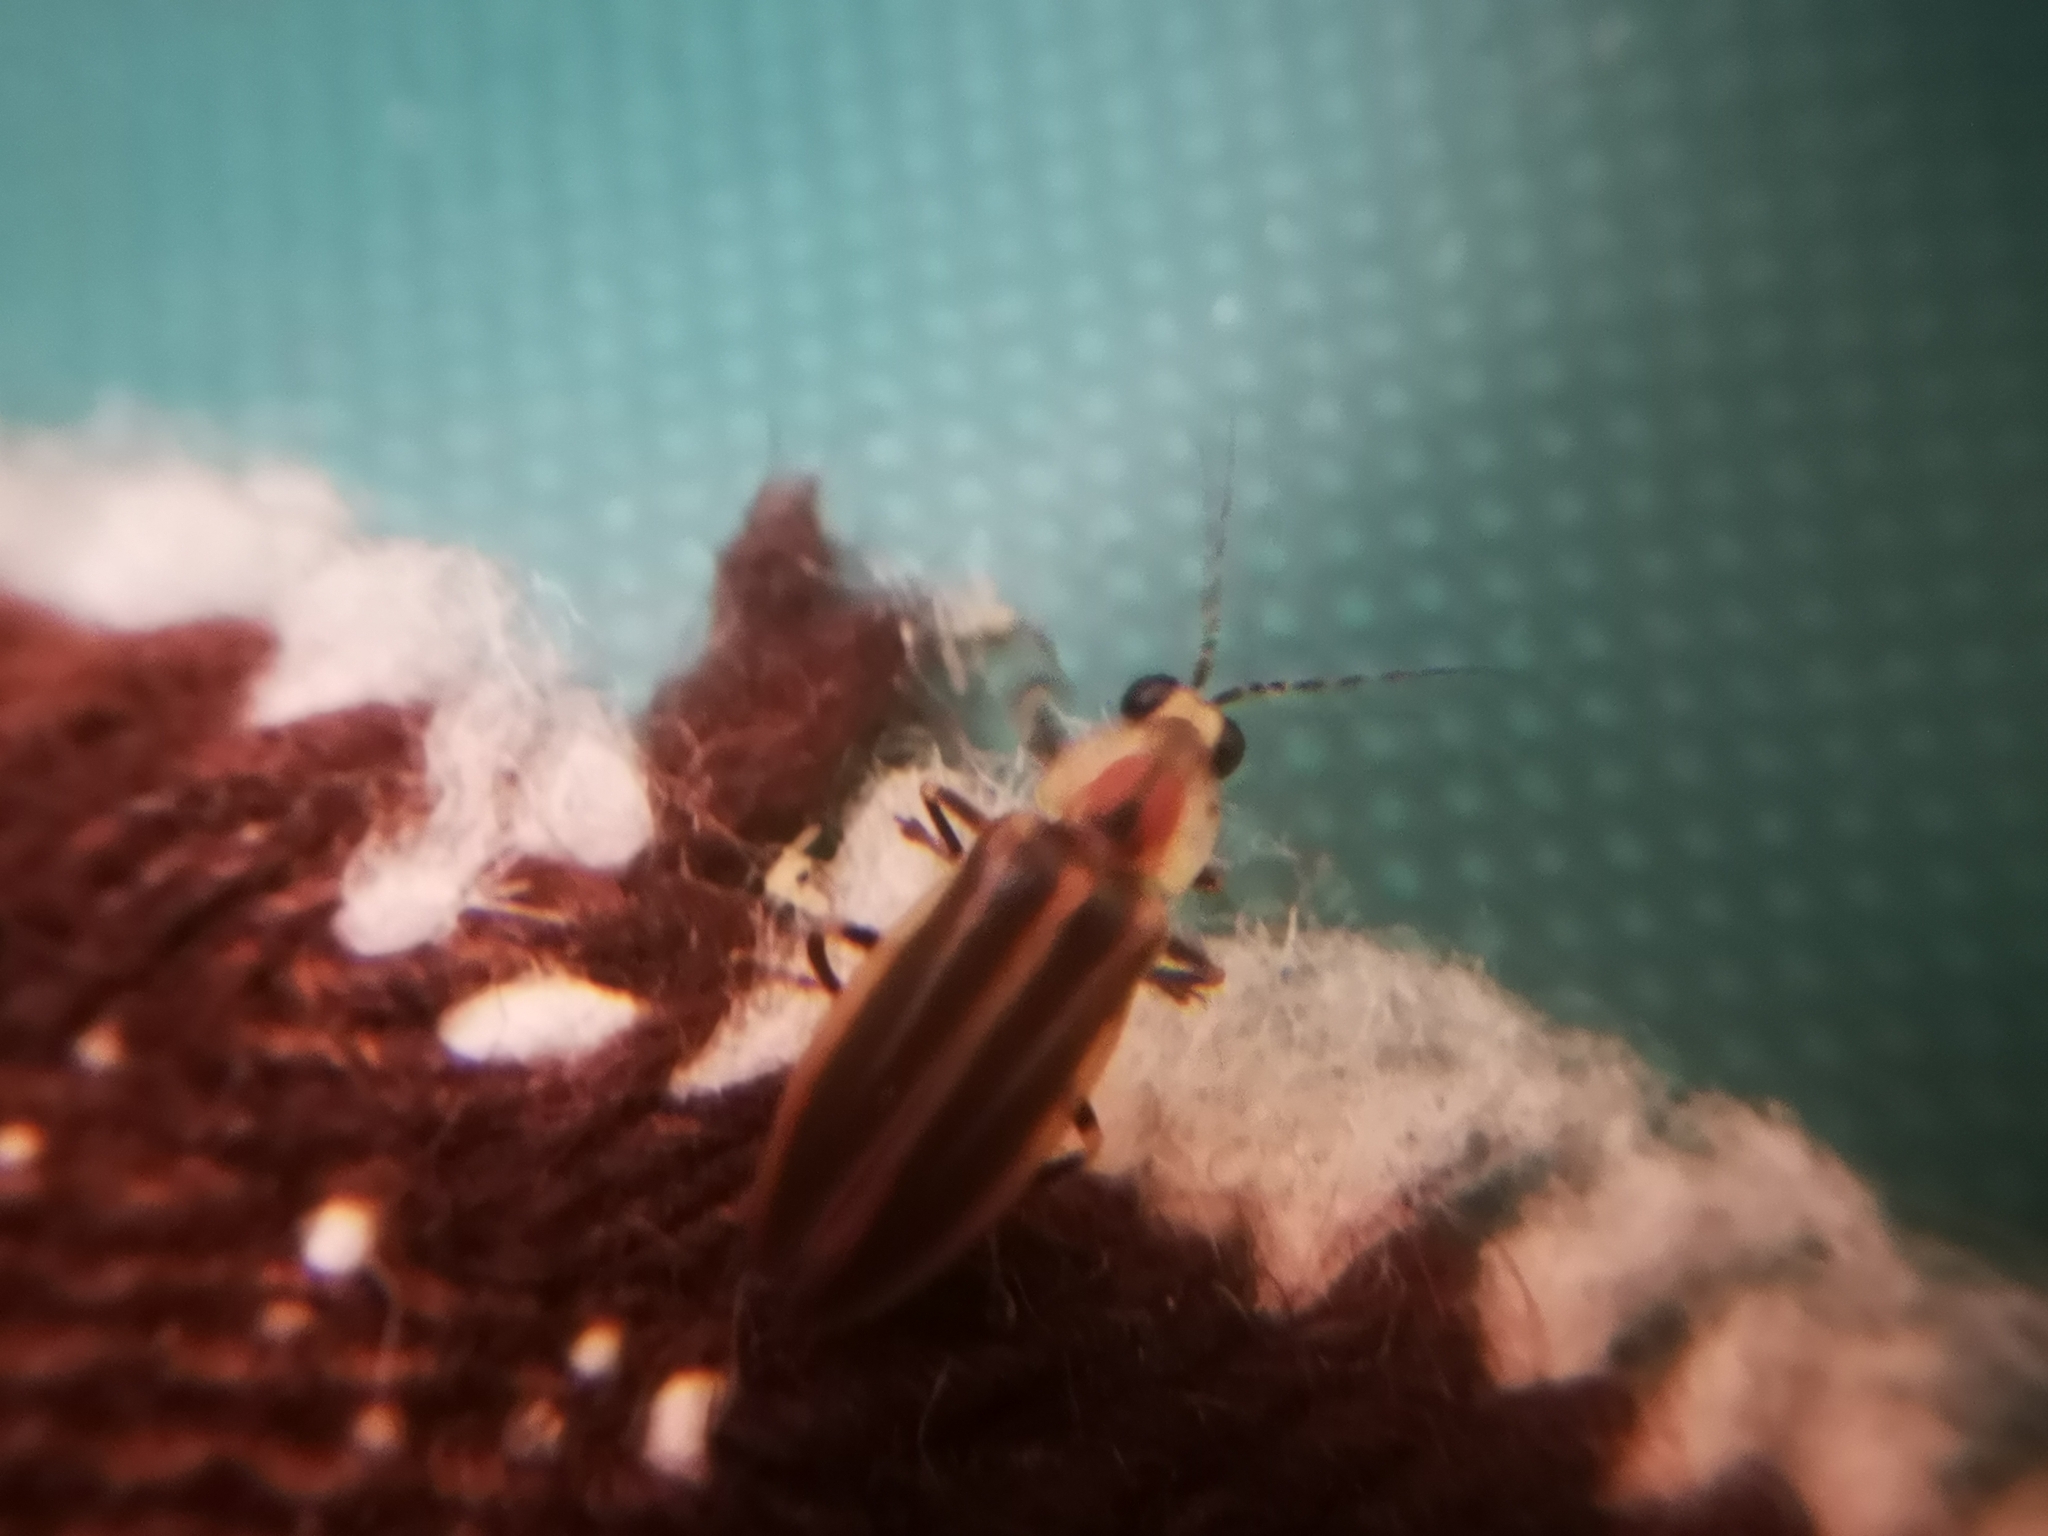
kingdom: Animalia
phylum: Arthropoda
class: Insecta
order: Coleoptera
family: Lampyridae
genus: Photuris
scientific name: Photuris
